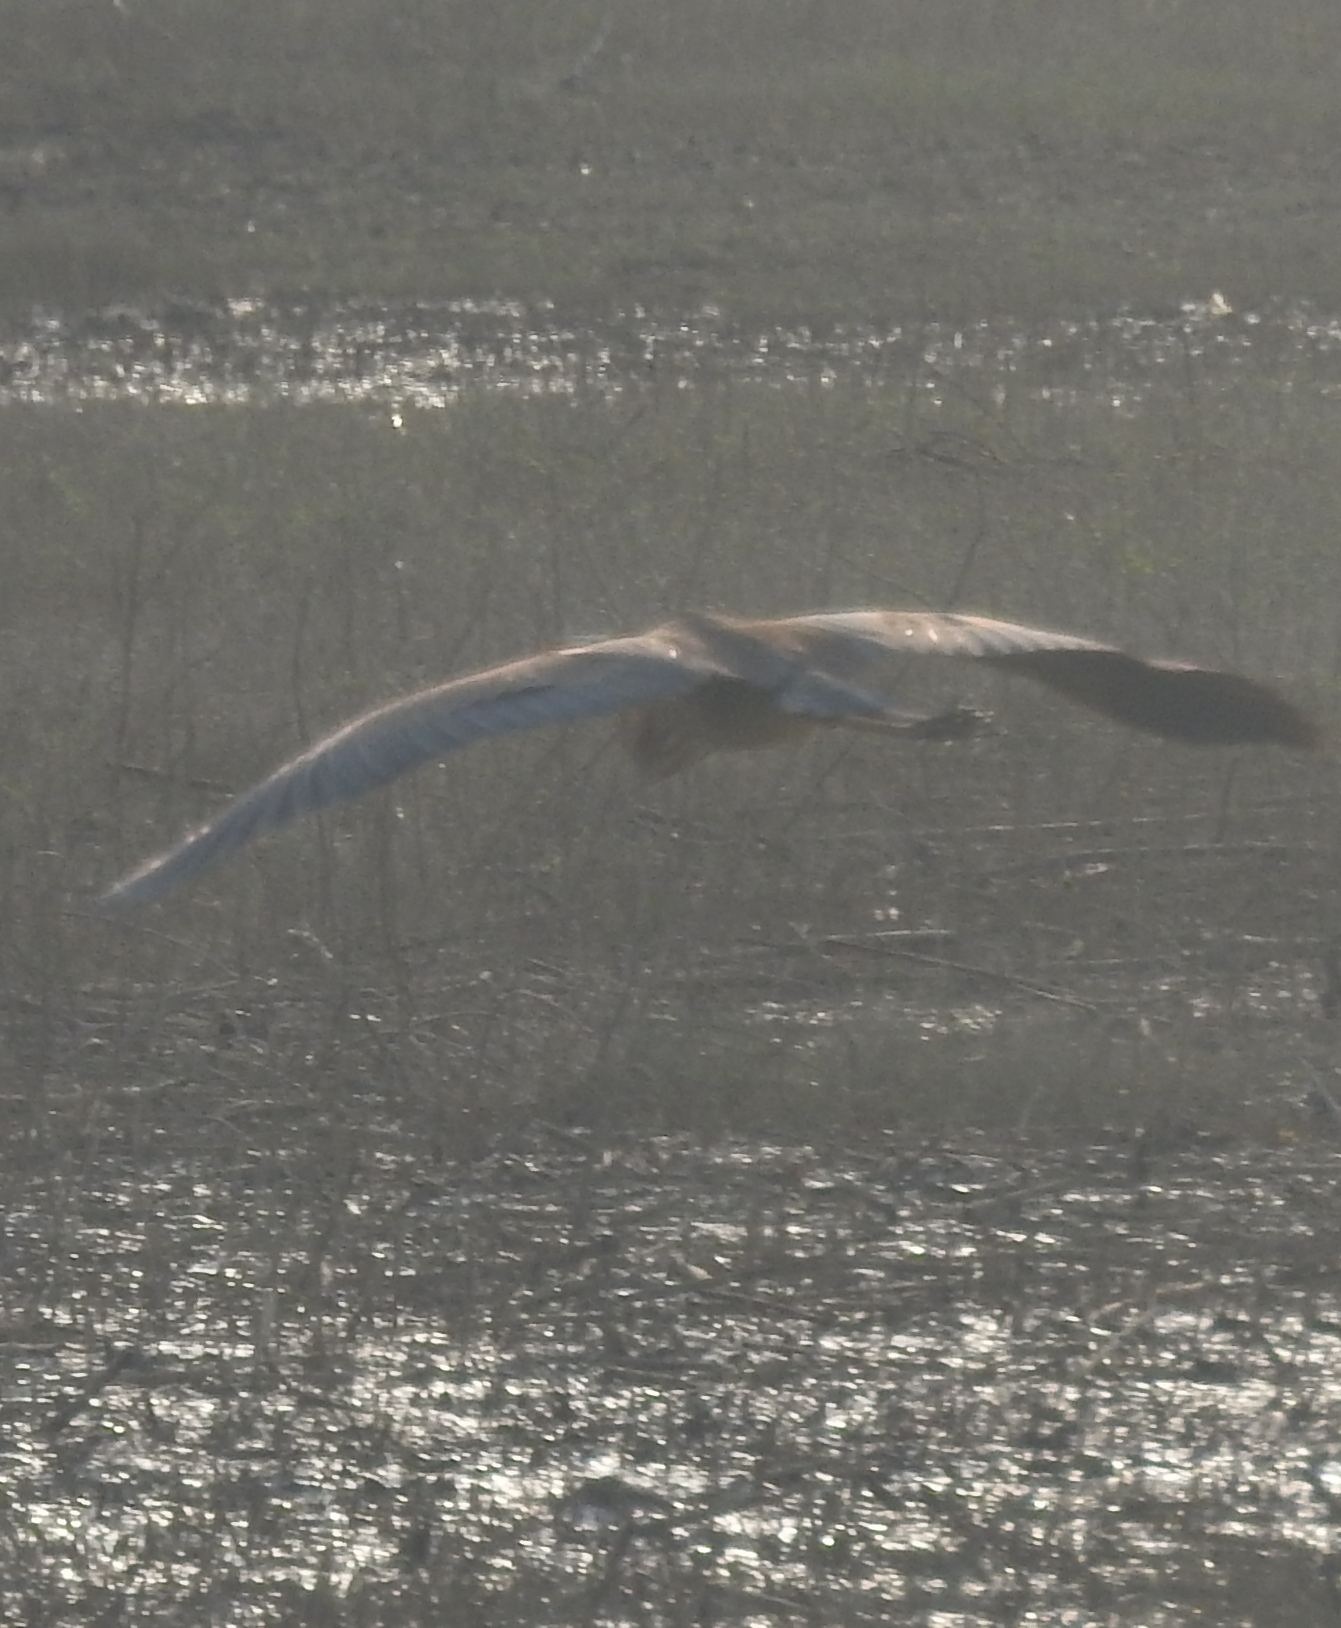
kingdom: Animalia
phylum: Chordata
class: Aves
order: Pelecaniformes
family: Ardeidae
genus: Ardea
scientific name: Ardea purpurea
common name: Purple heron
